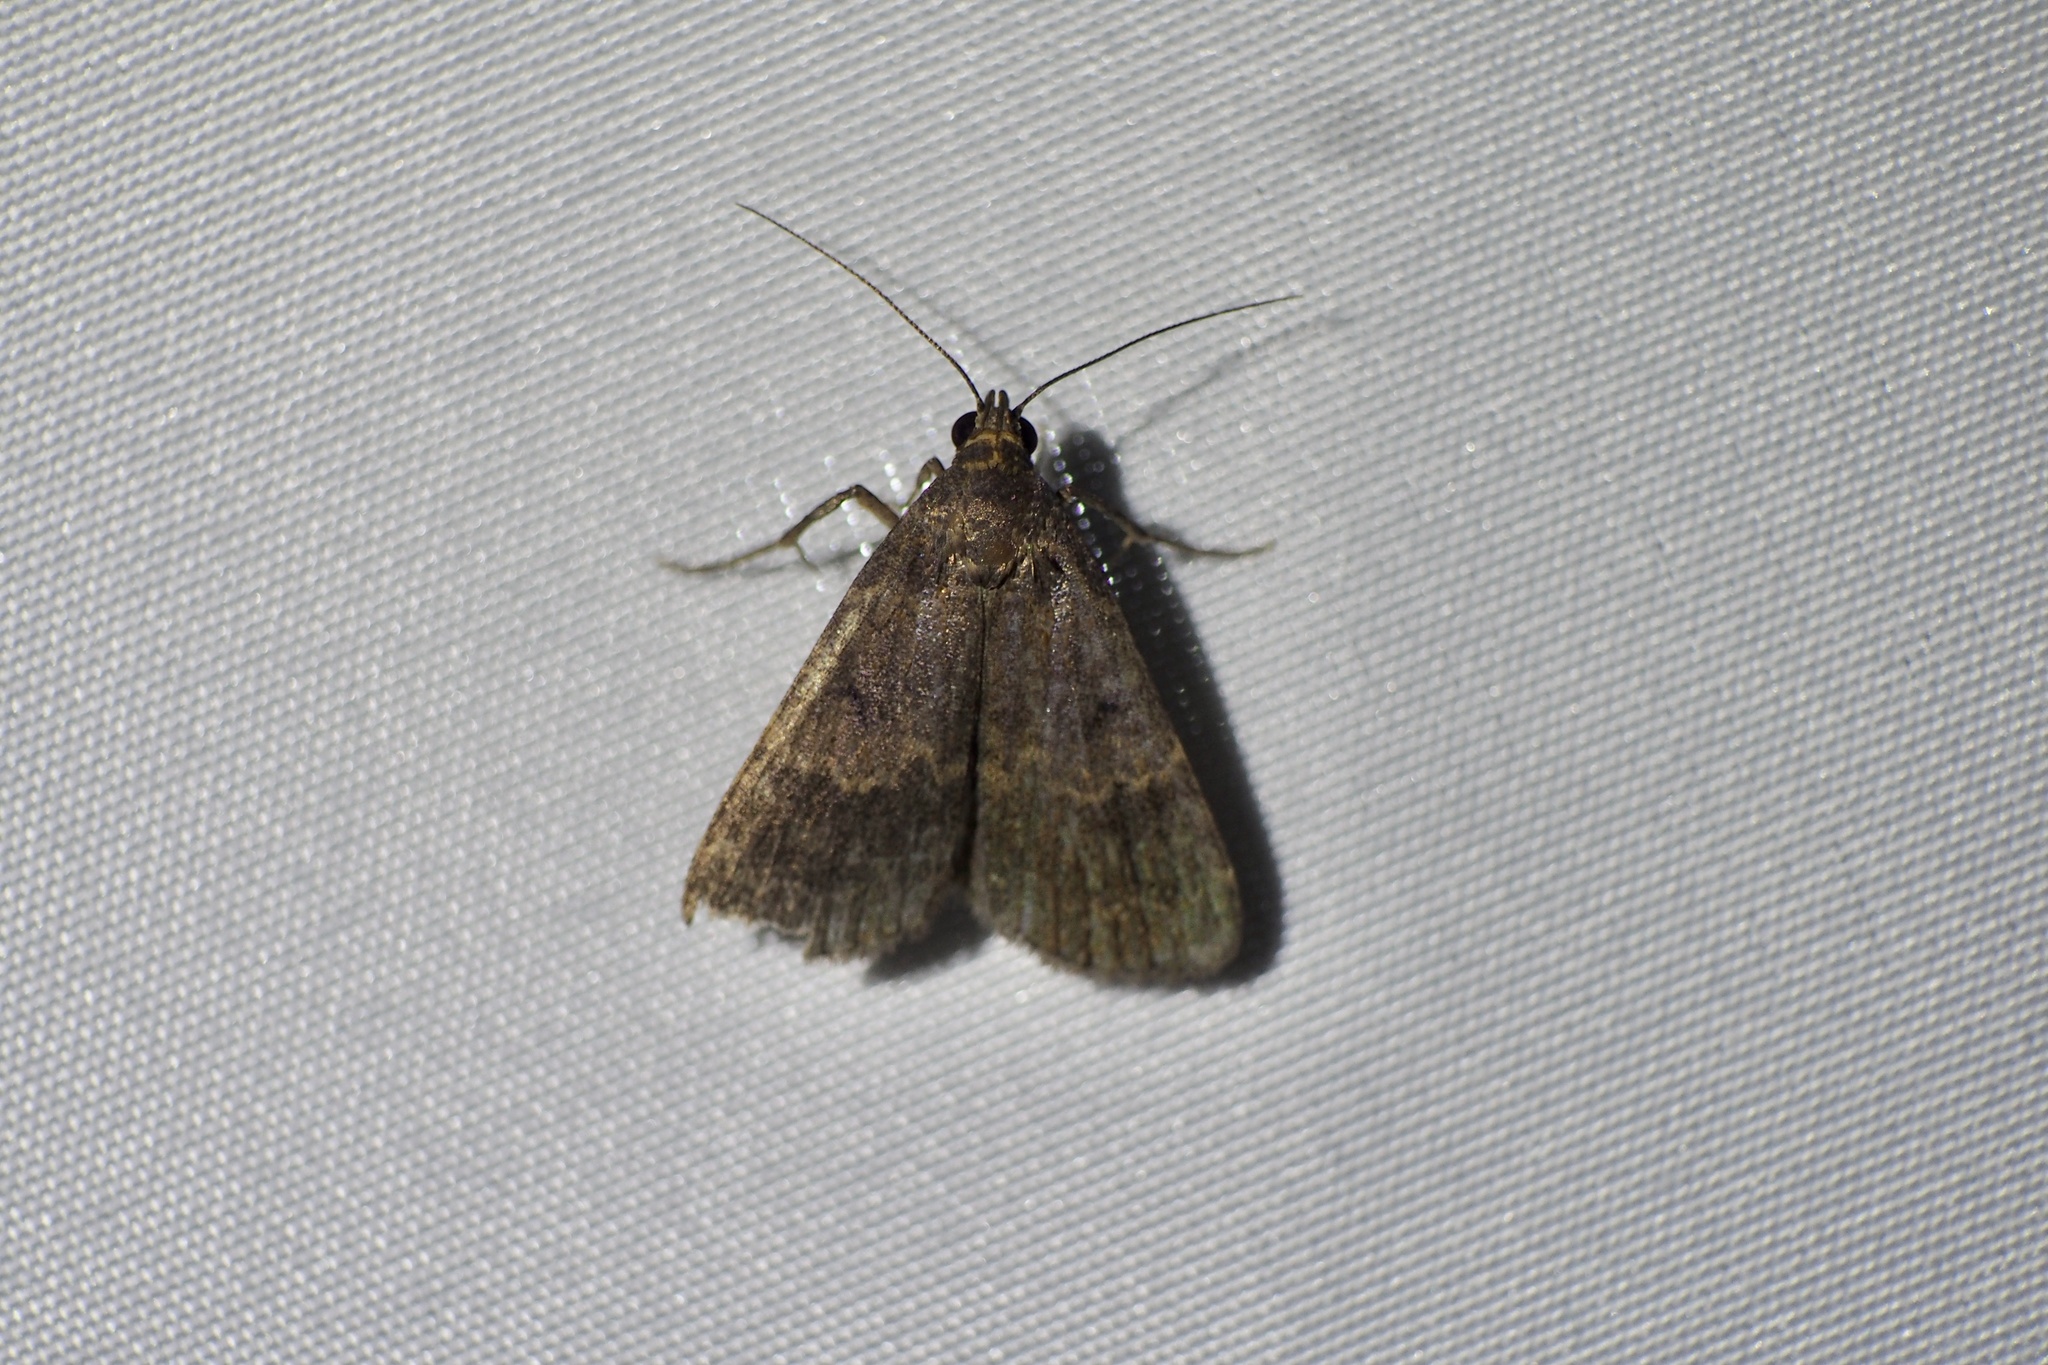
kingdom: Animalia
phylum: Arthropoda
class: Insecta
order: Lepidoptera
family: Erebidae
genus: Hydrillodes
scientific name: Hydrillodes lentalis
